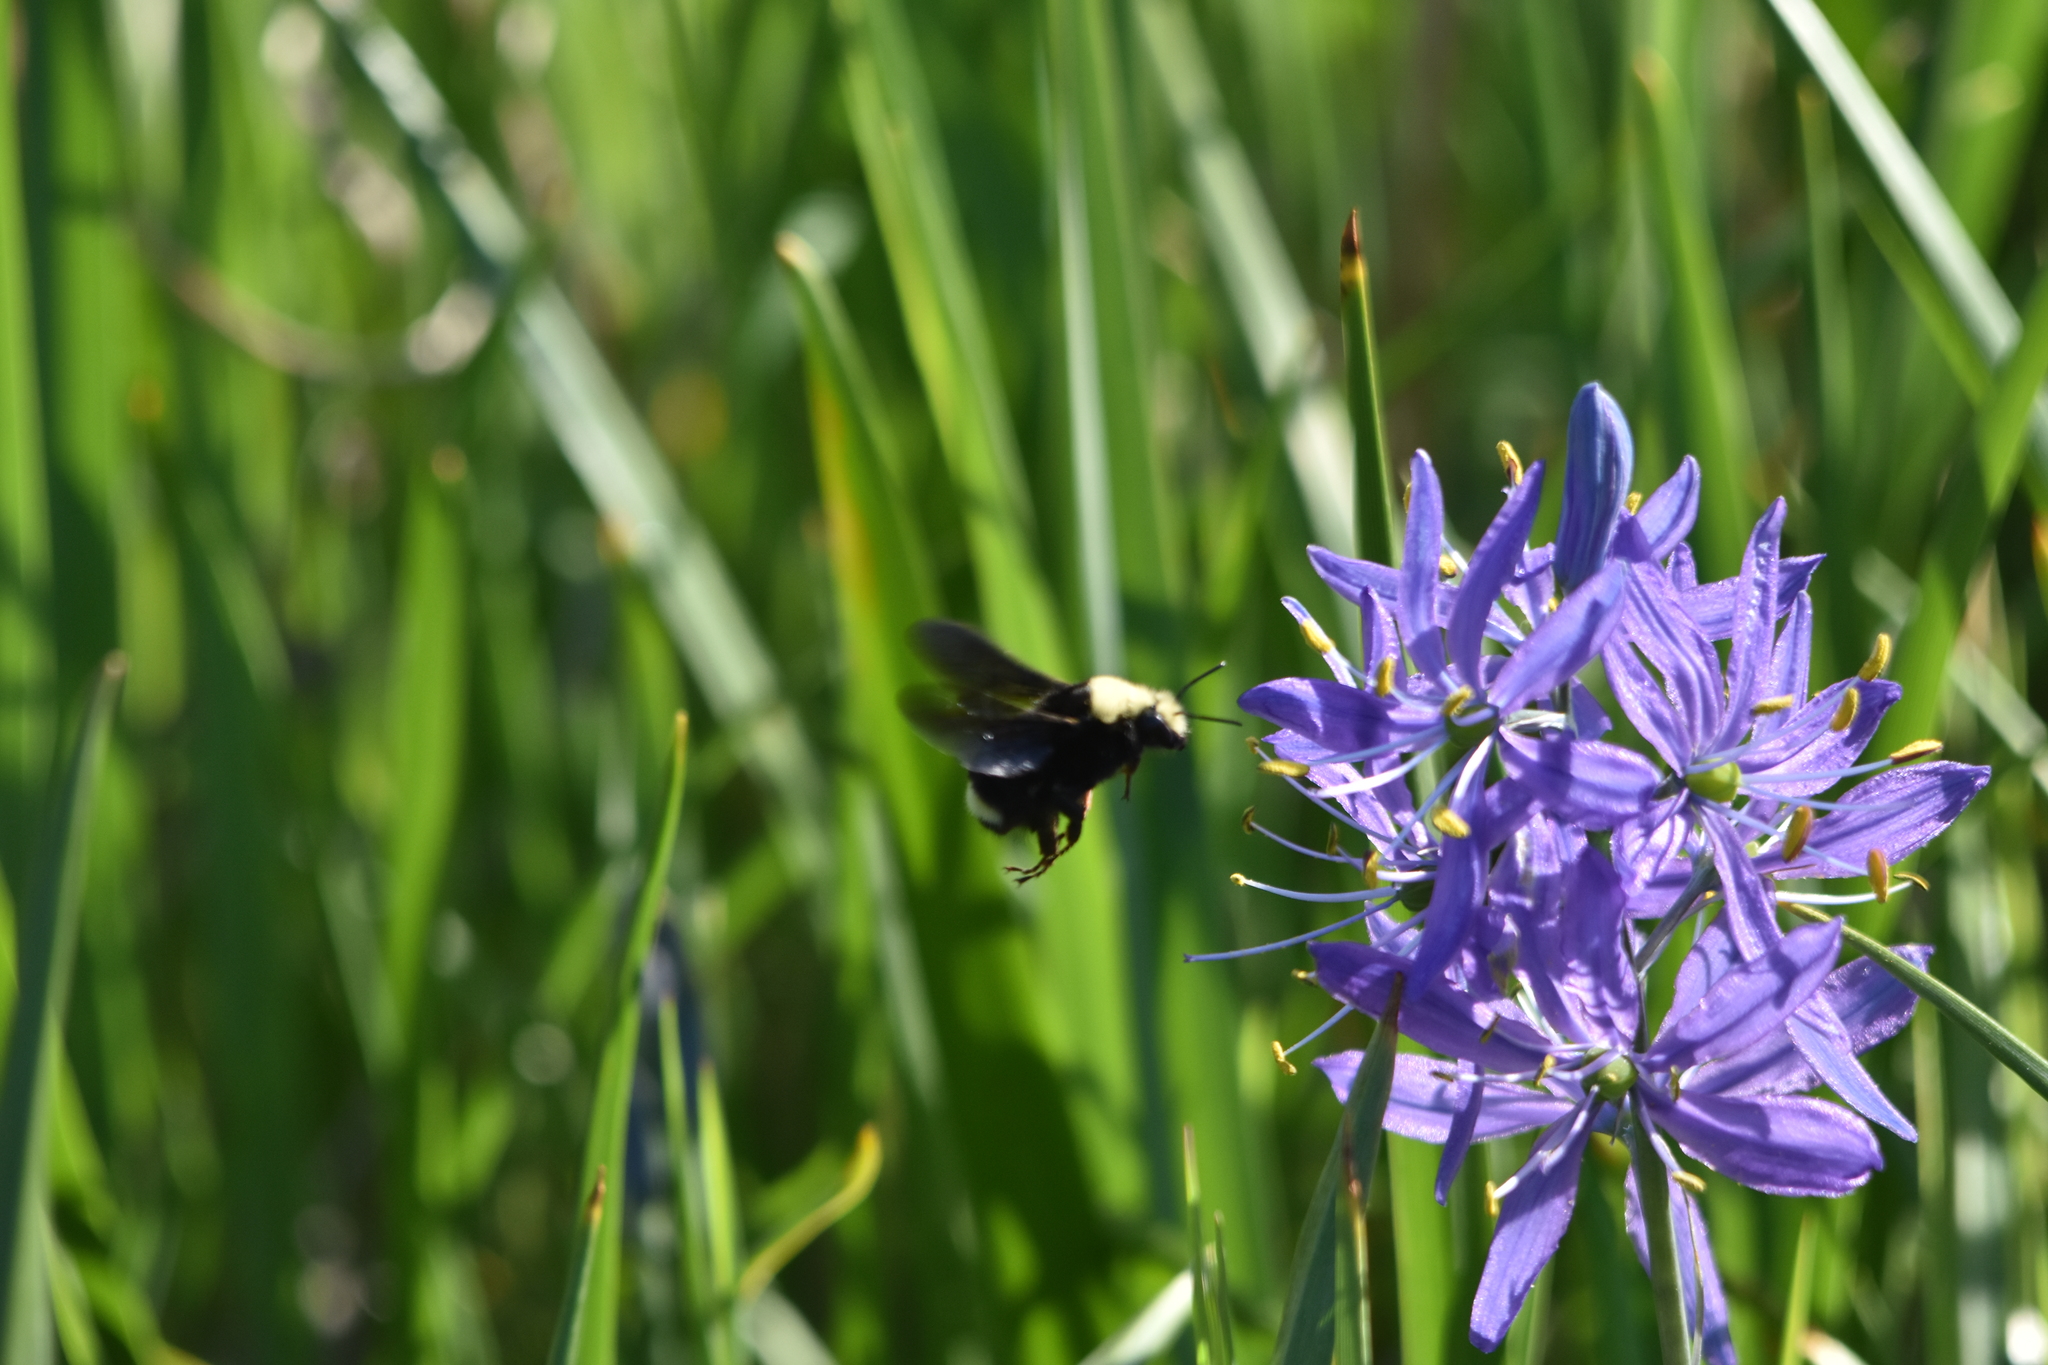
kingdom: Animalia
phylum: Arthropoda
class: Insecta
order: Hymenoptera
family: Apidae
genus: Bombus
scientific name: Bombus vosnesenskii
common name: Vosnesensky bumble bee
